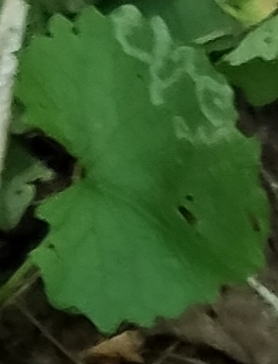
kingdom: Plantae
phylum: Tracheophyta
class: Magnoliopsida
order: Brassicales
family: Brassicaceae
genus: Alliaria
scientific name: Alliaria petiolata
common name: Garlic mustard
